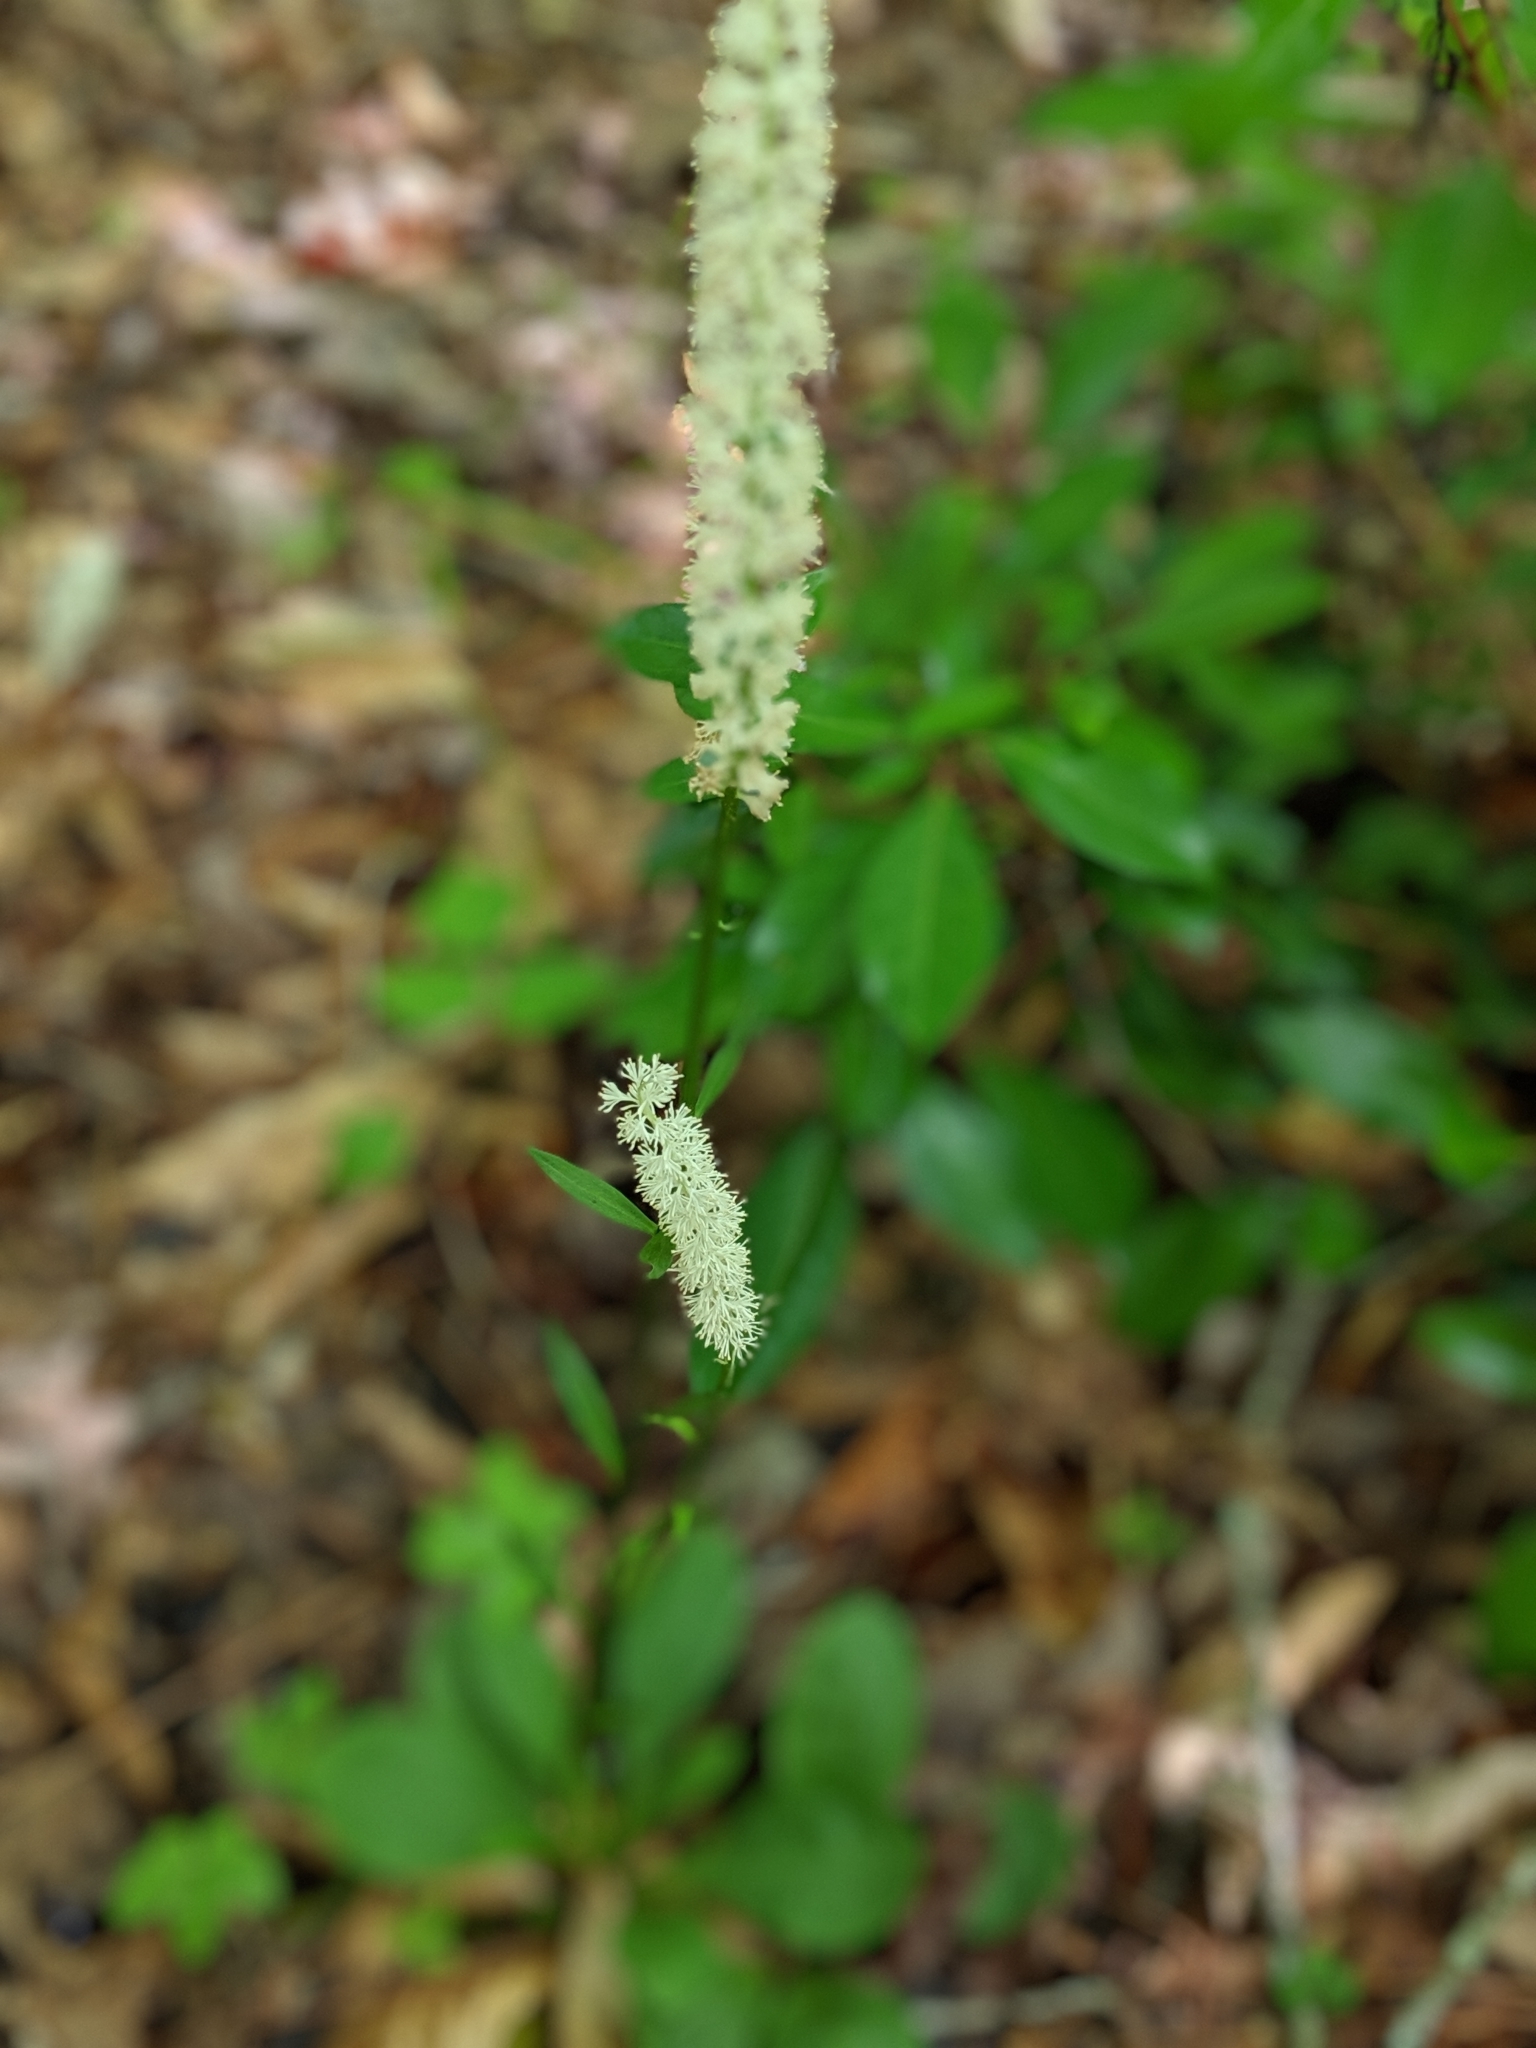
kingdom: Plantae
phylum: Tracheophyta
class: Liliopsida
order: Liliales
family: Melanthiaceae
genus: Chamaelirium
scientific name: Chamaelirium luteum
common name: Fairy-wand
